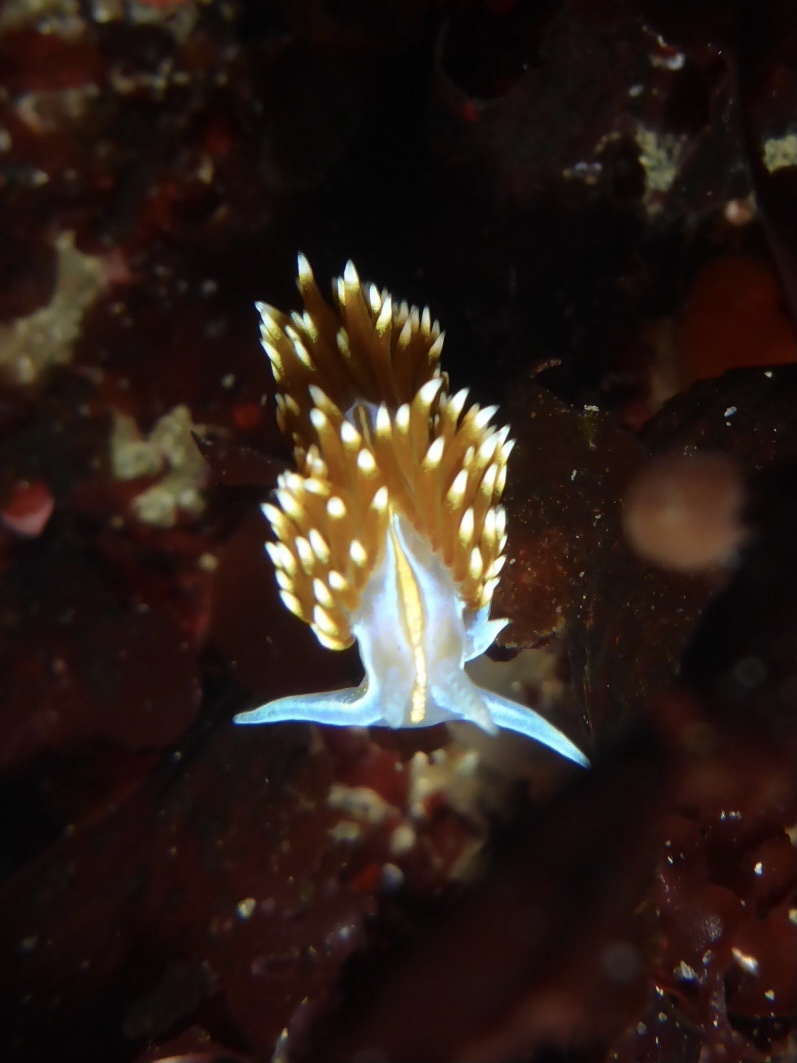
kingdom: Animalia
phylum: Mollusca
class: Gastropoda
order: Nudibranchia
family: Myrrhinidae
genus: Hermissenda
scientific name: Hermissenda opalescens
